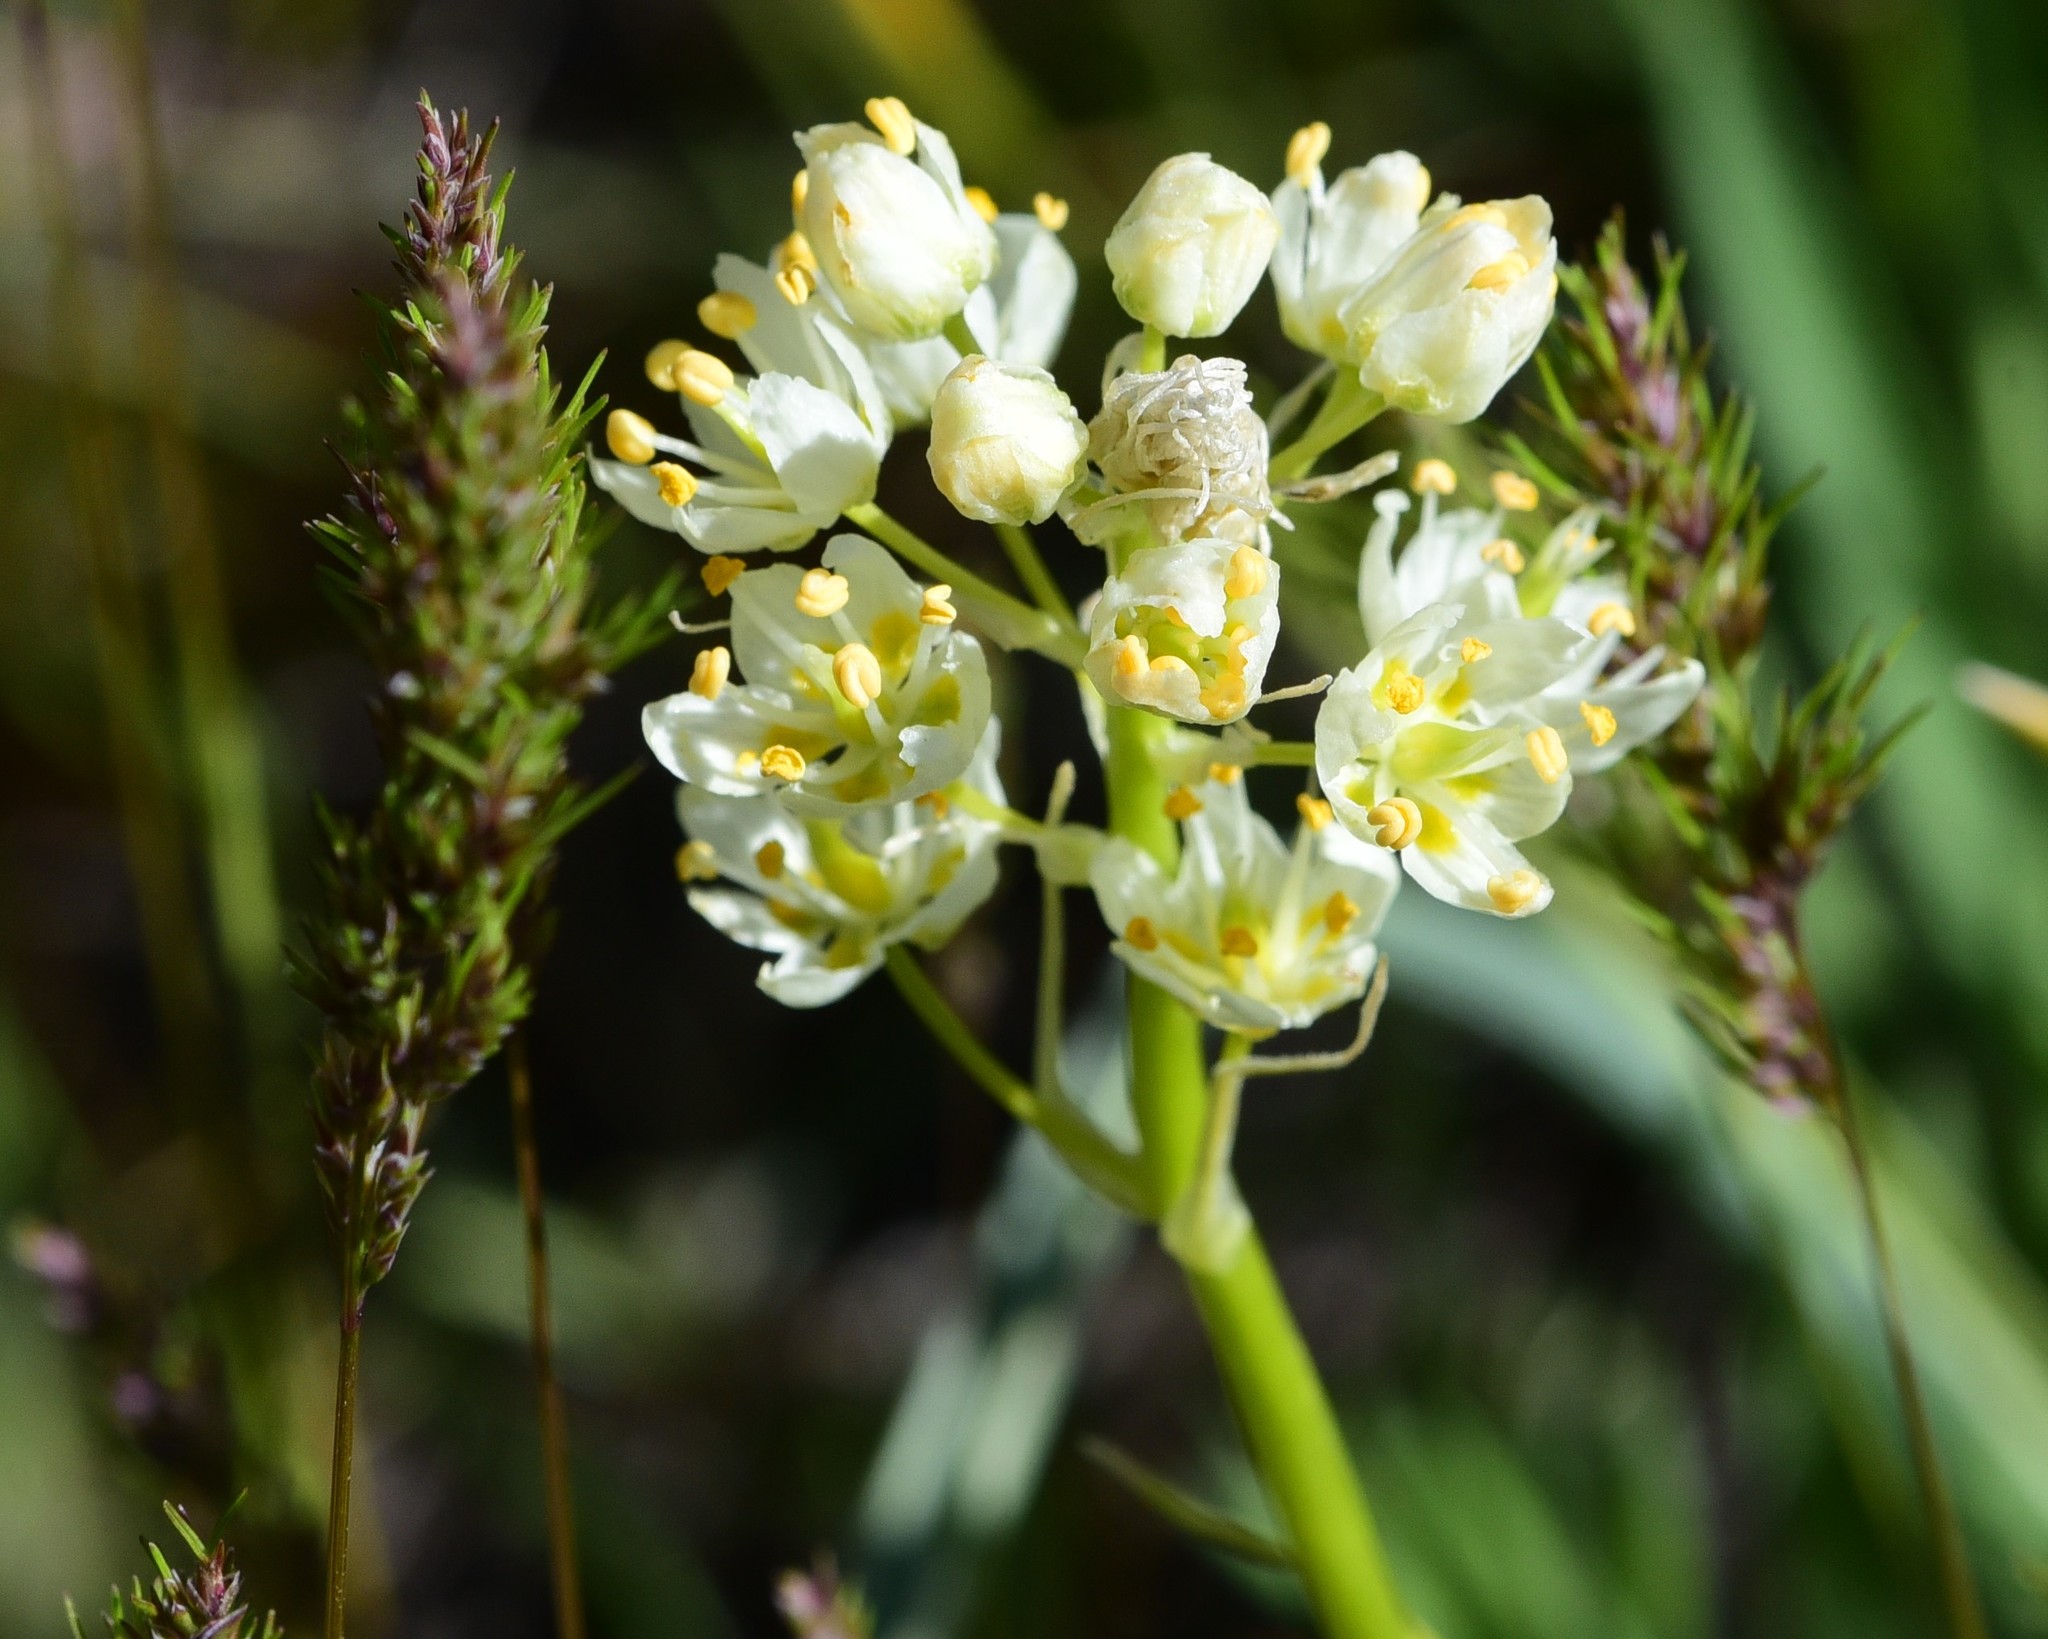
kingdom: Plantae
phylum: Tracheophyta
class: Liliopsida
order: Liliales
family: Melanthiaceae
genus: Toxicoscordion
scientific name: Toxicoscordion venenosum
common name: Meadow death camas
